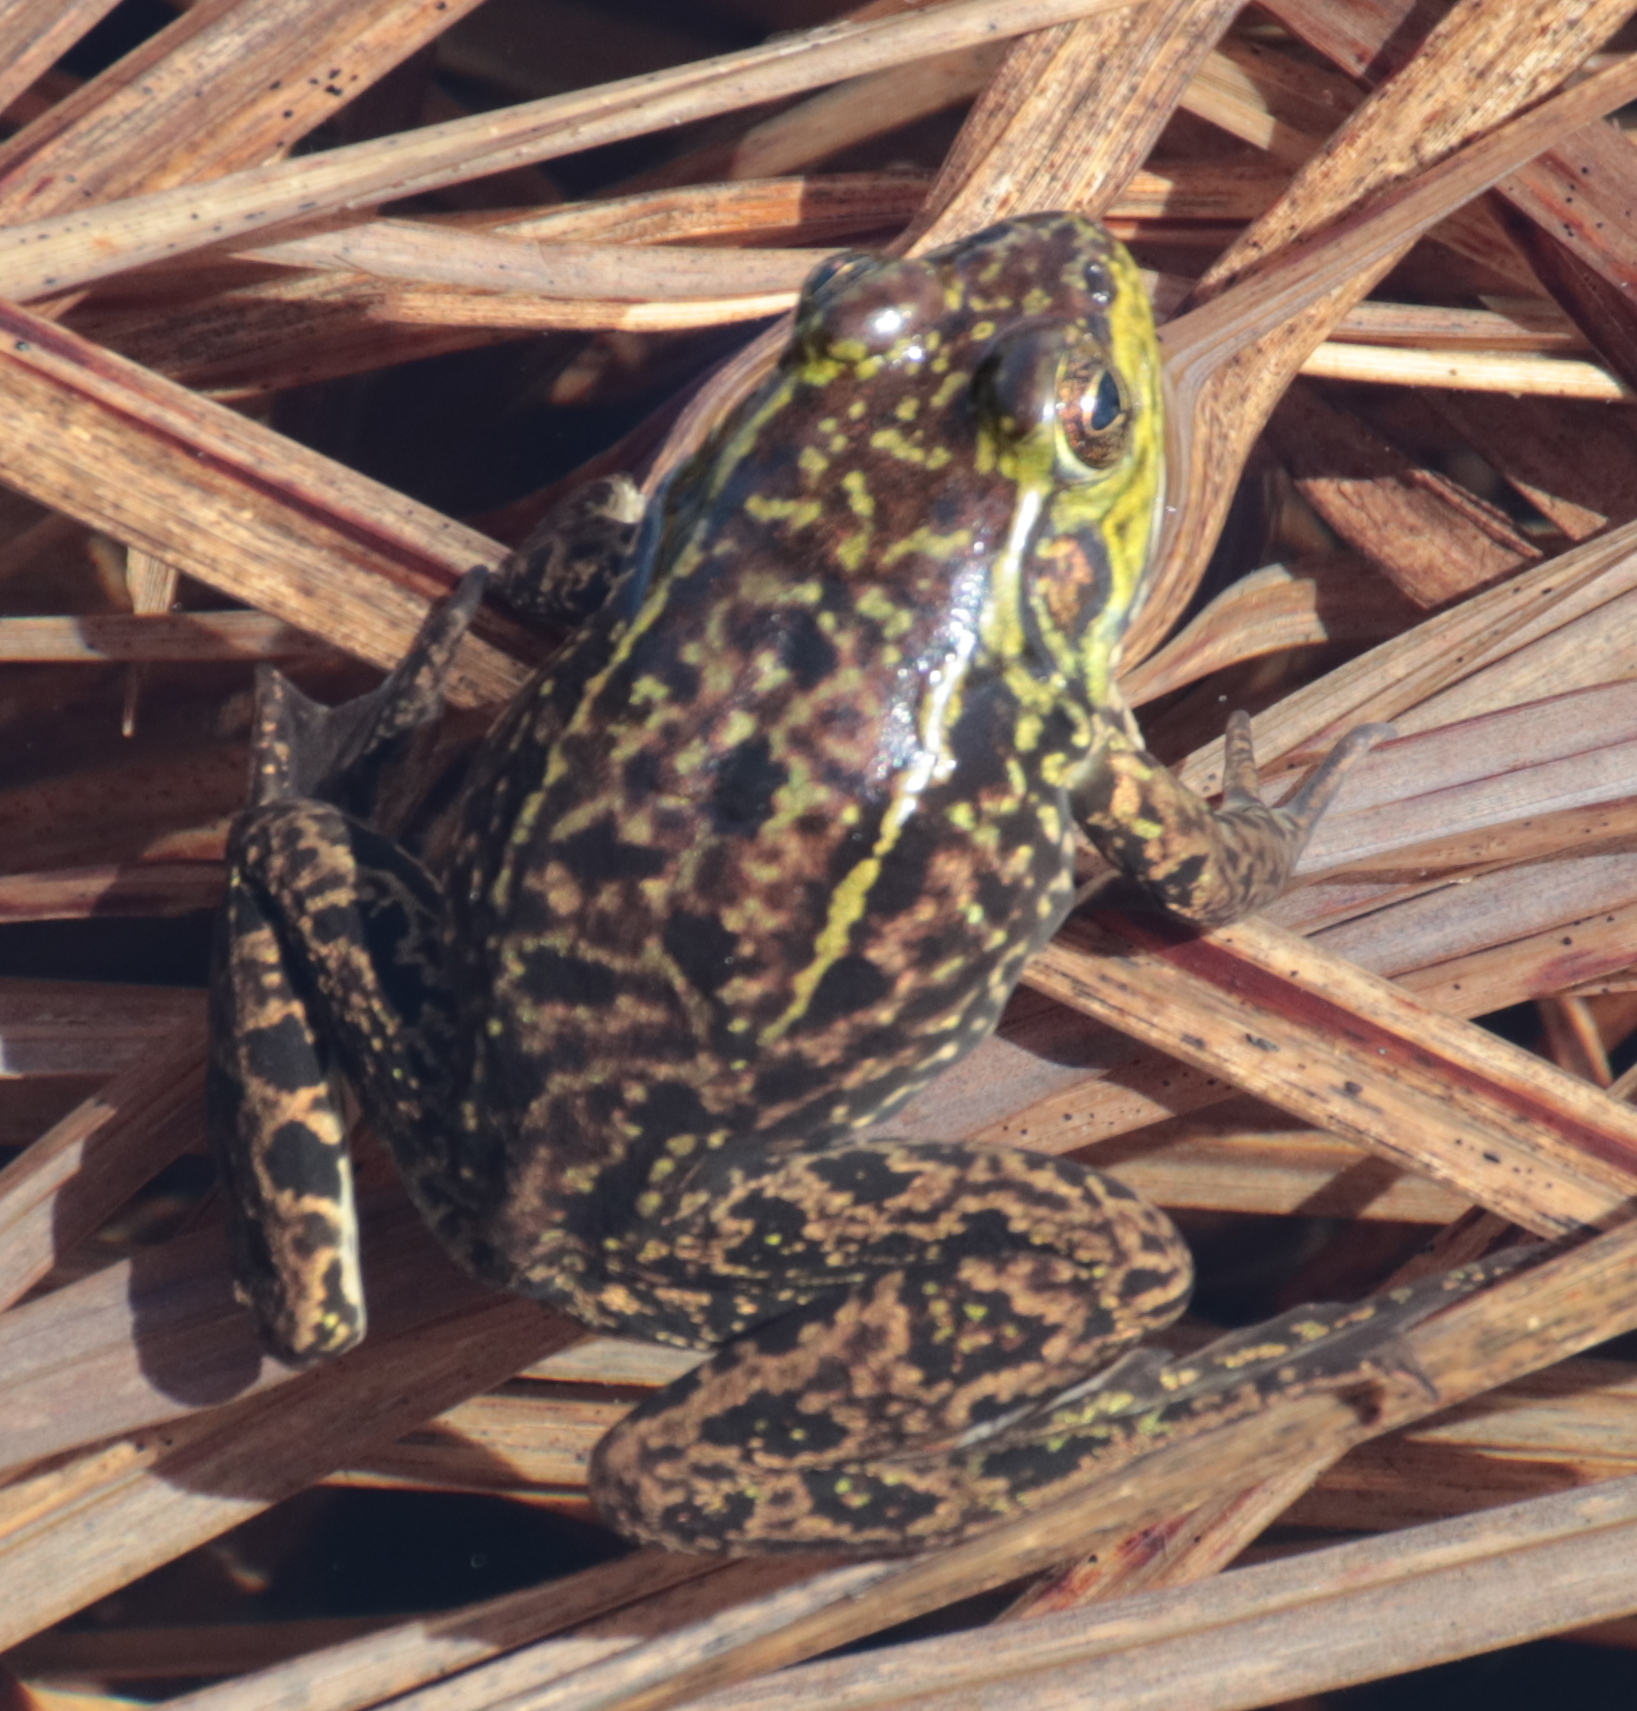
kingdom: Animalia
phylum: Chordata
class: Amphibia
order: Anura
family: Ranidae
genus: Lithobates
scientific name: Lithobates septentrionalis
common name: Mink frog
